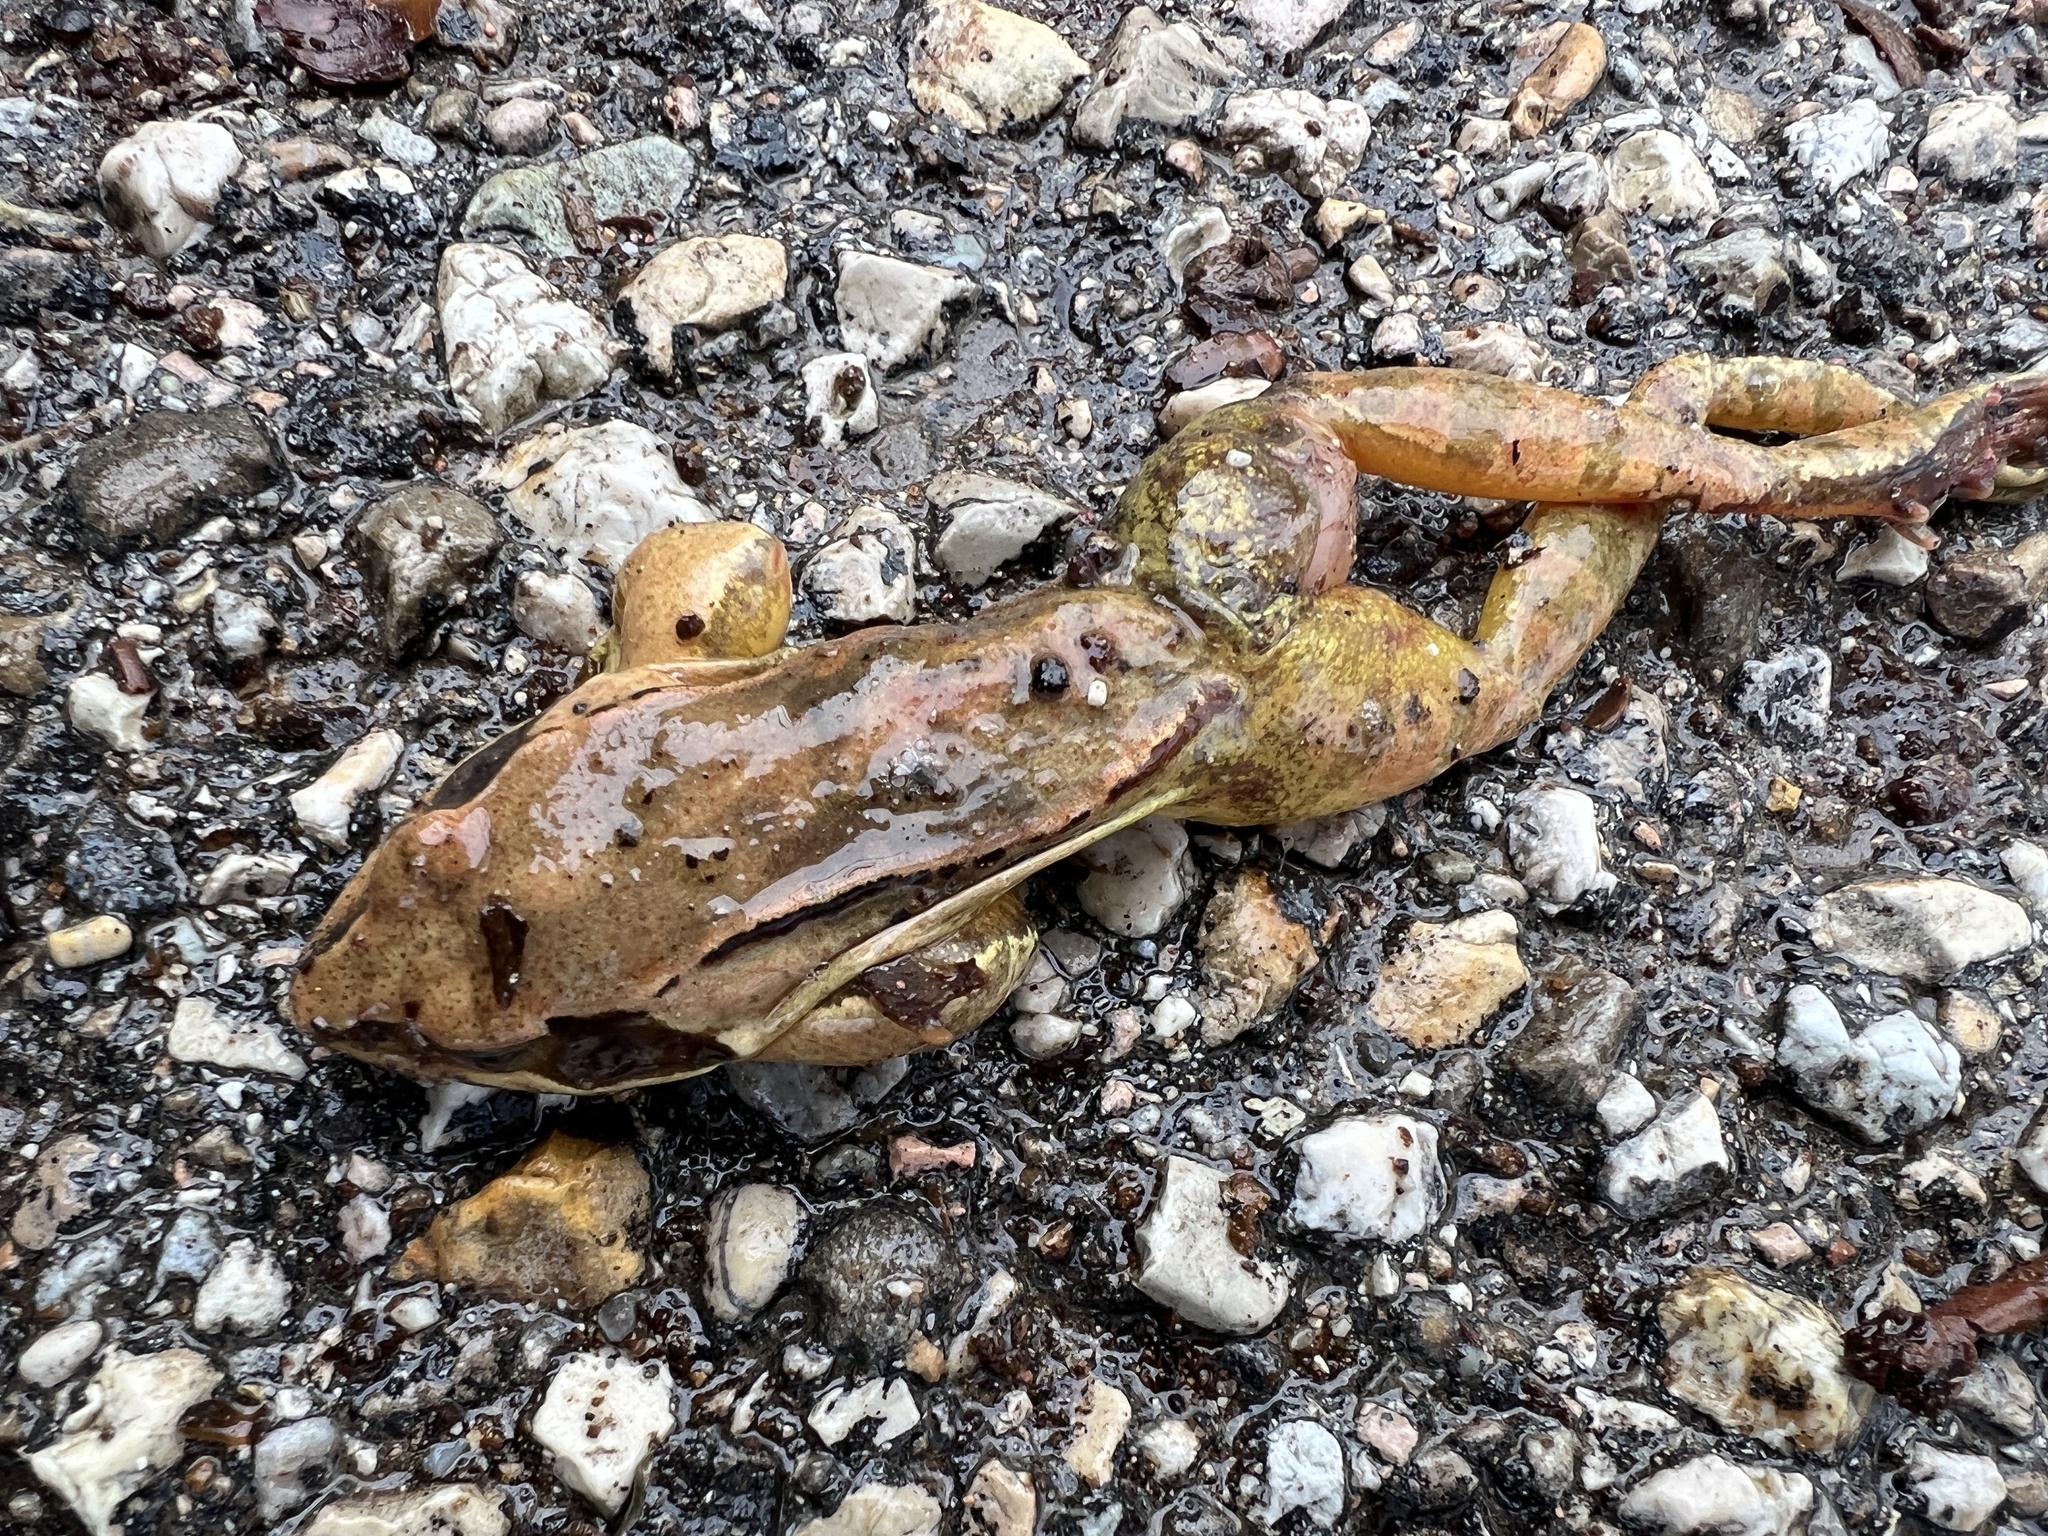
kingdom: Animalia
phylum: Chordata
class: Amphibia
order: Anura
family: Ranidae
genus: Rana
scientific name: Rana dalmatina
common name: Agile frog
